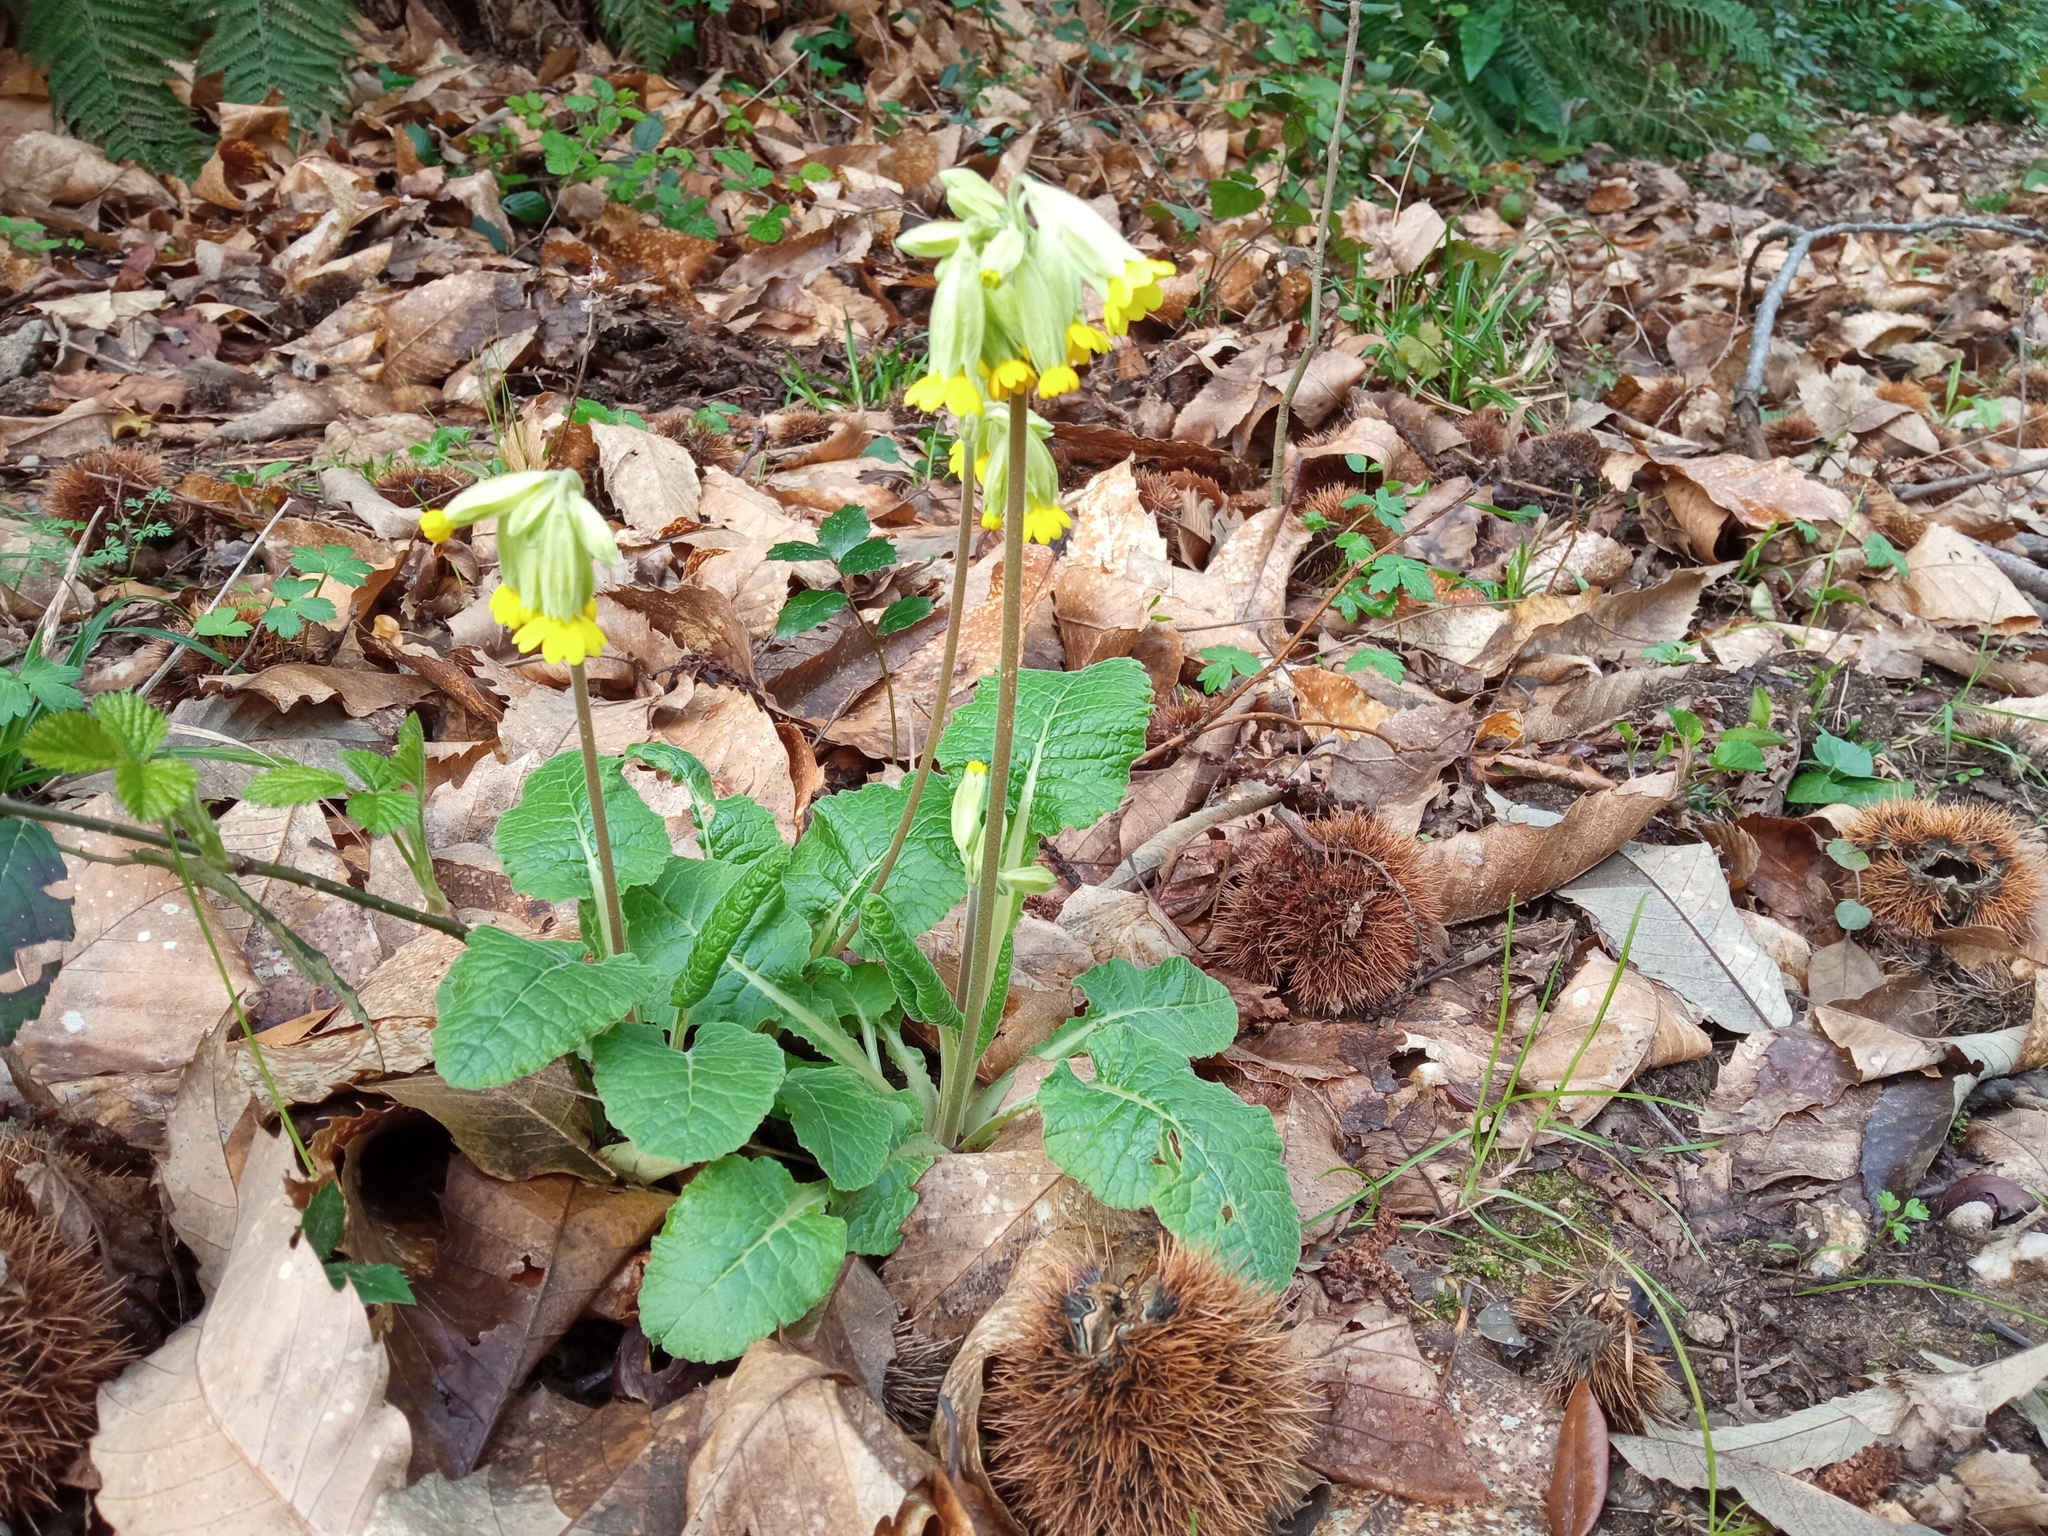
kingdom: Plantae
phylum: Tracheophyta
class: Magnoliopsida
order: Ericales
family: Primulaceae
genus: Primula
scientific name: Primula veris
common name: Cowslip
